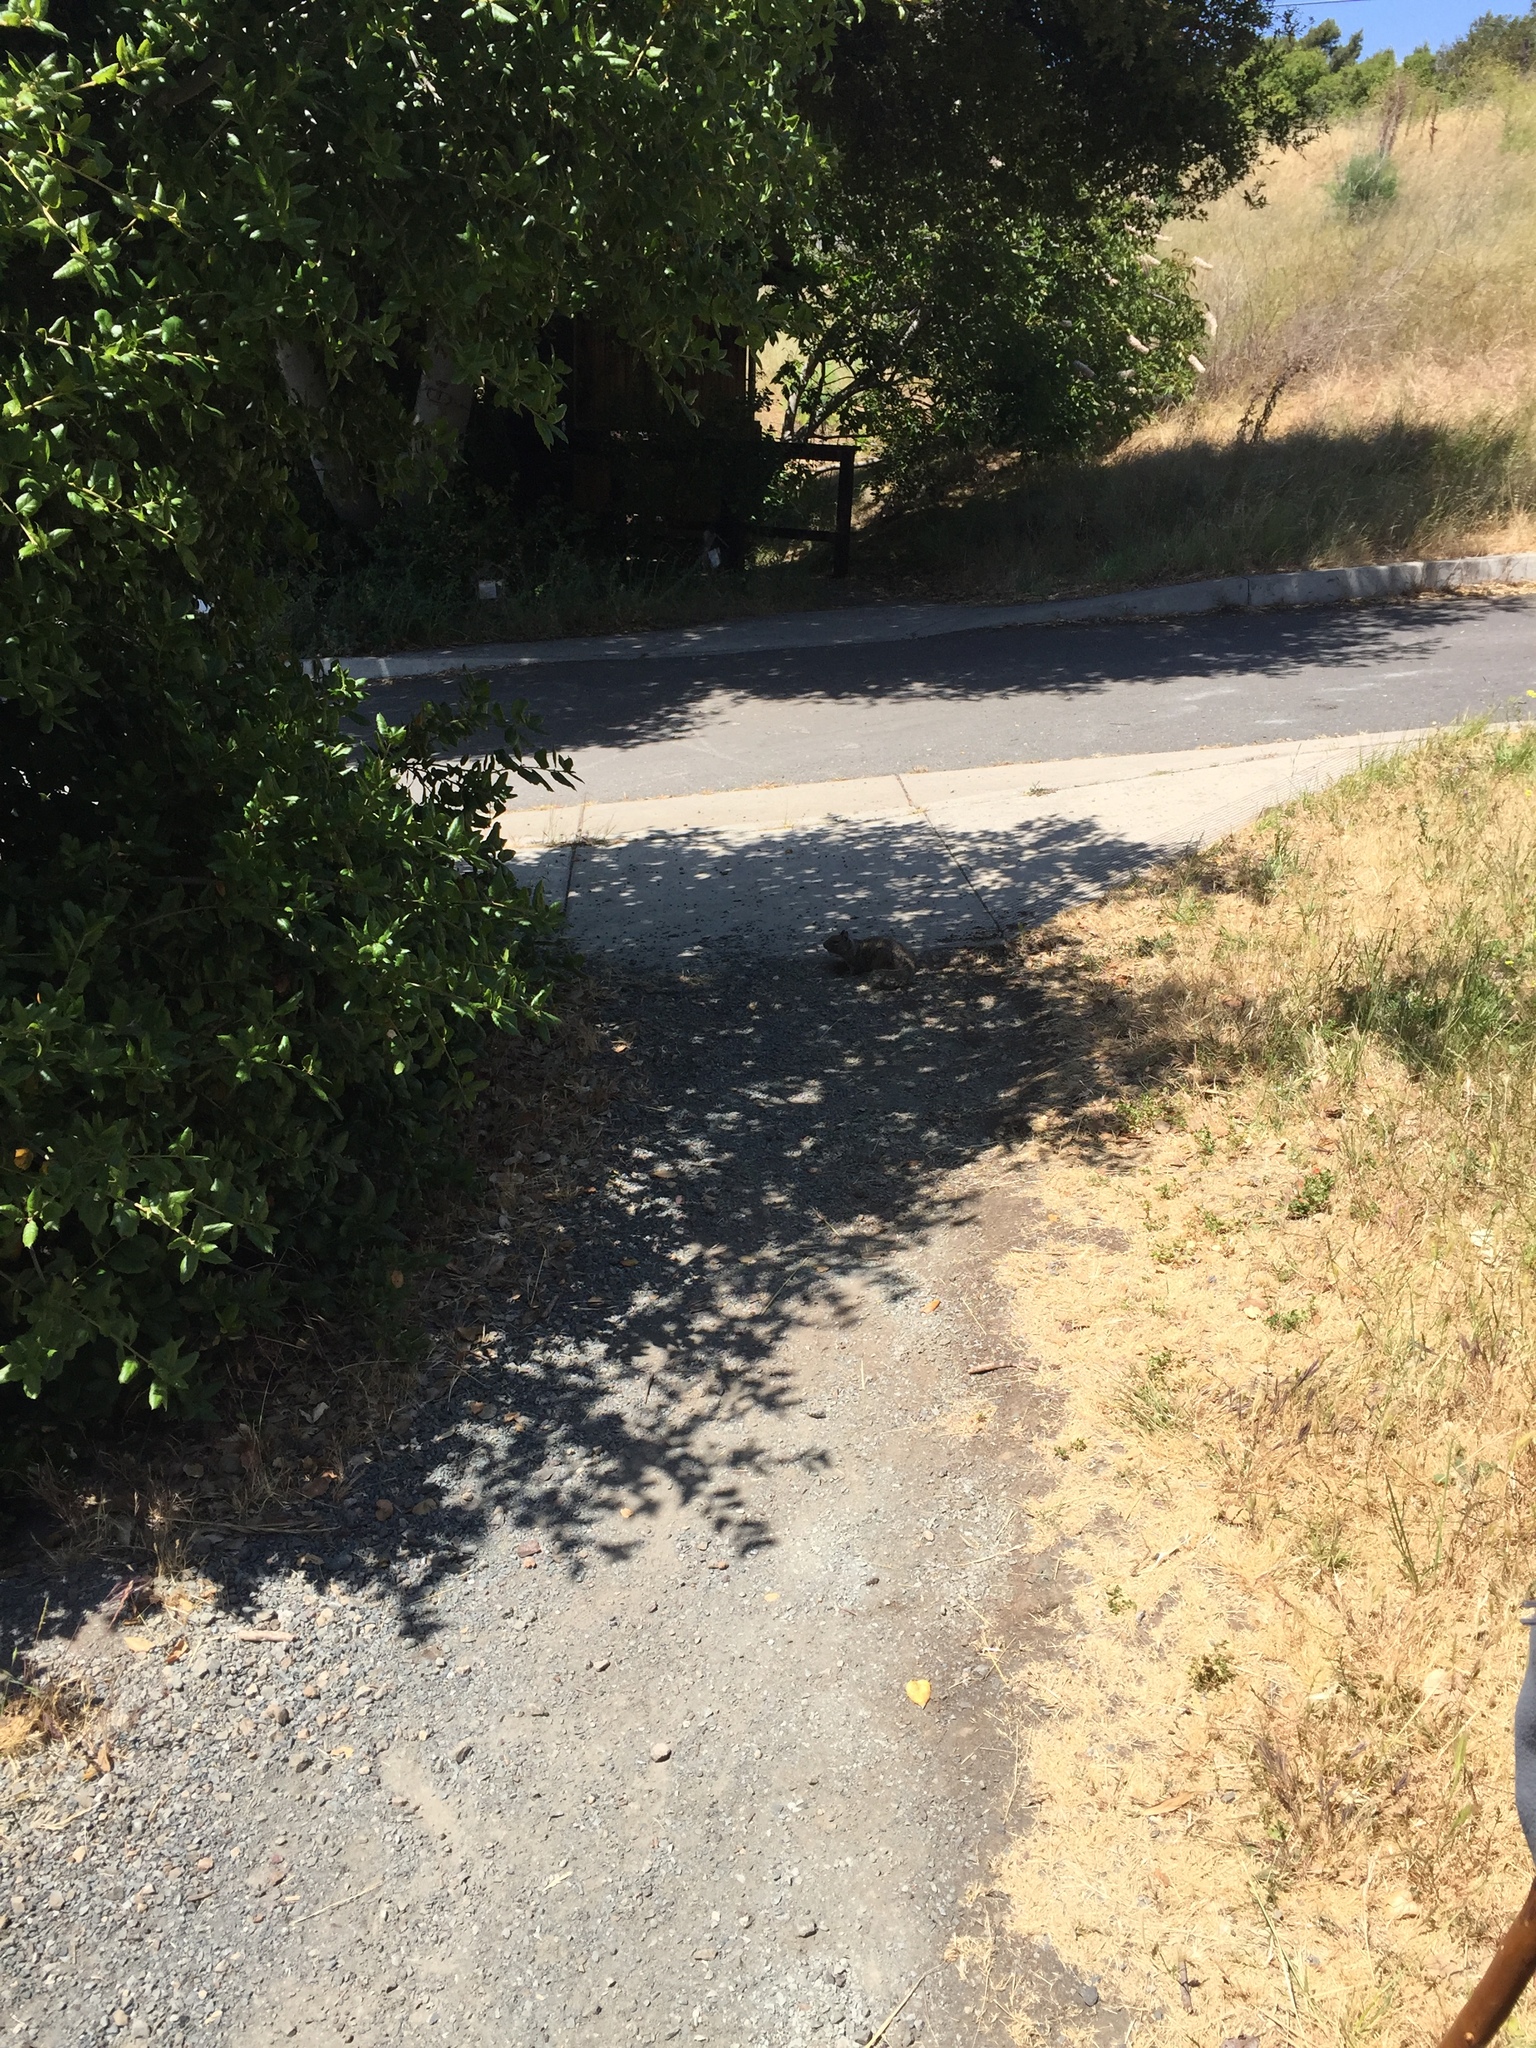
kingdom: Animalia
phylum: Chordata
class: Mammalia
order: Rodentia
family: Sciuridae
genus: Otospermophilus
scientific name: Otospermophilus beecheyi
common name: California ground squirrel
